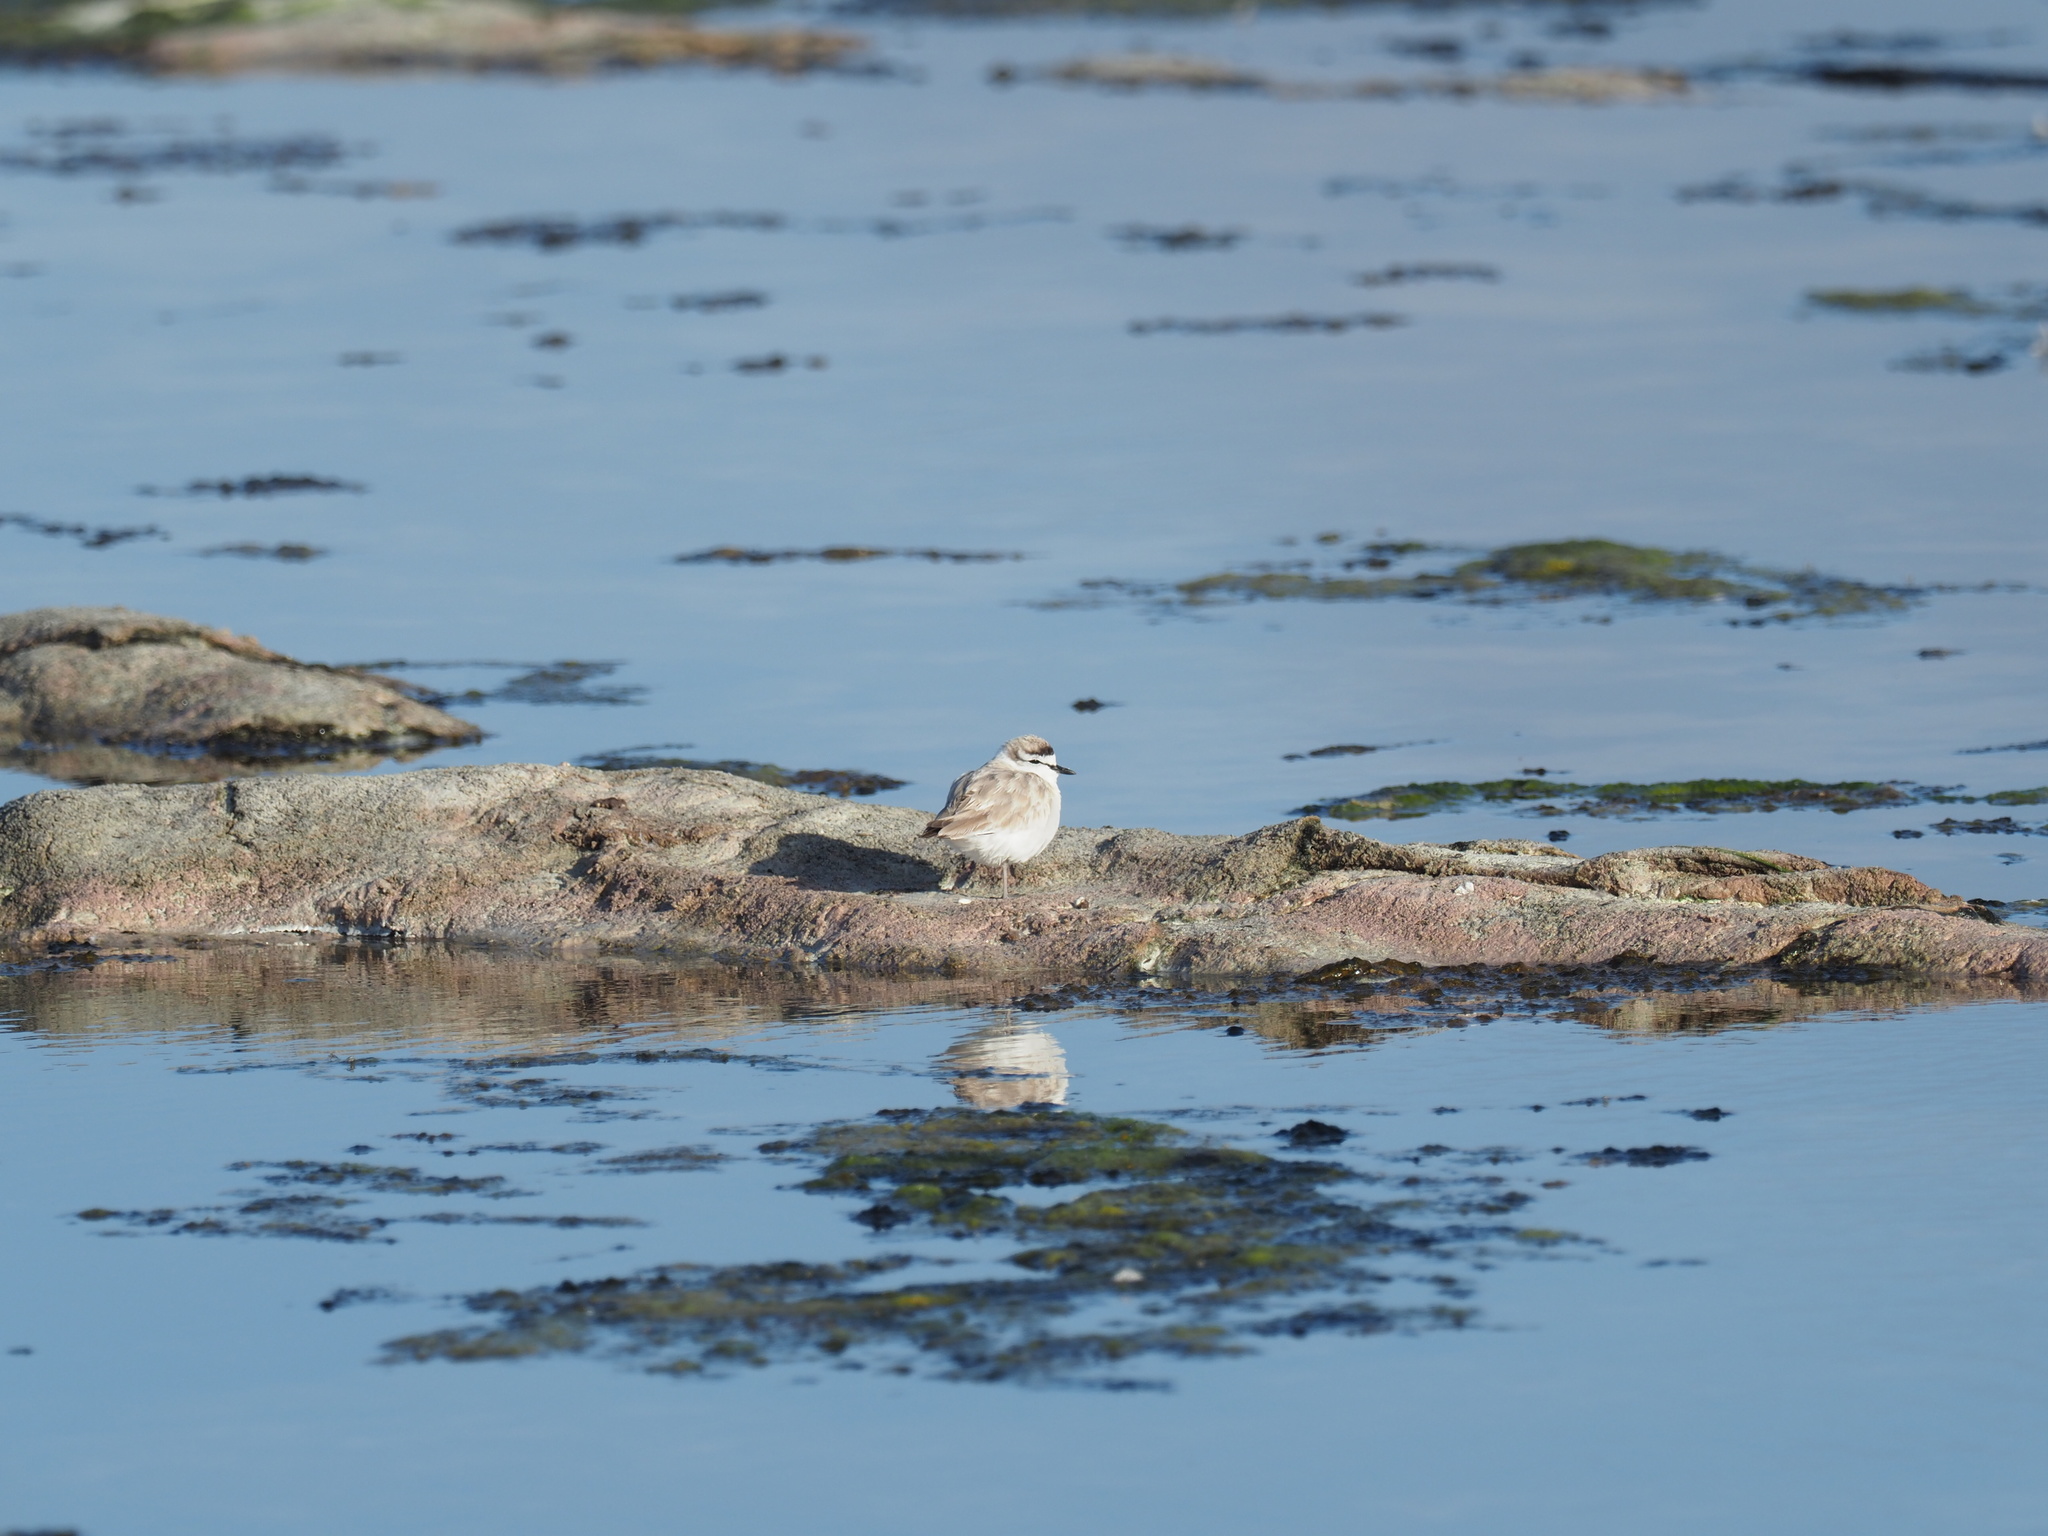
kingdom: Animalia
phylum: Chordata
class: Aves
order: Charadriiformes
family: Charadriidae
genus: Anarhynchus
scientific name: Anarhynchus
